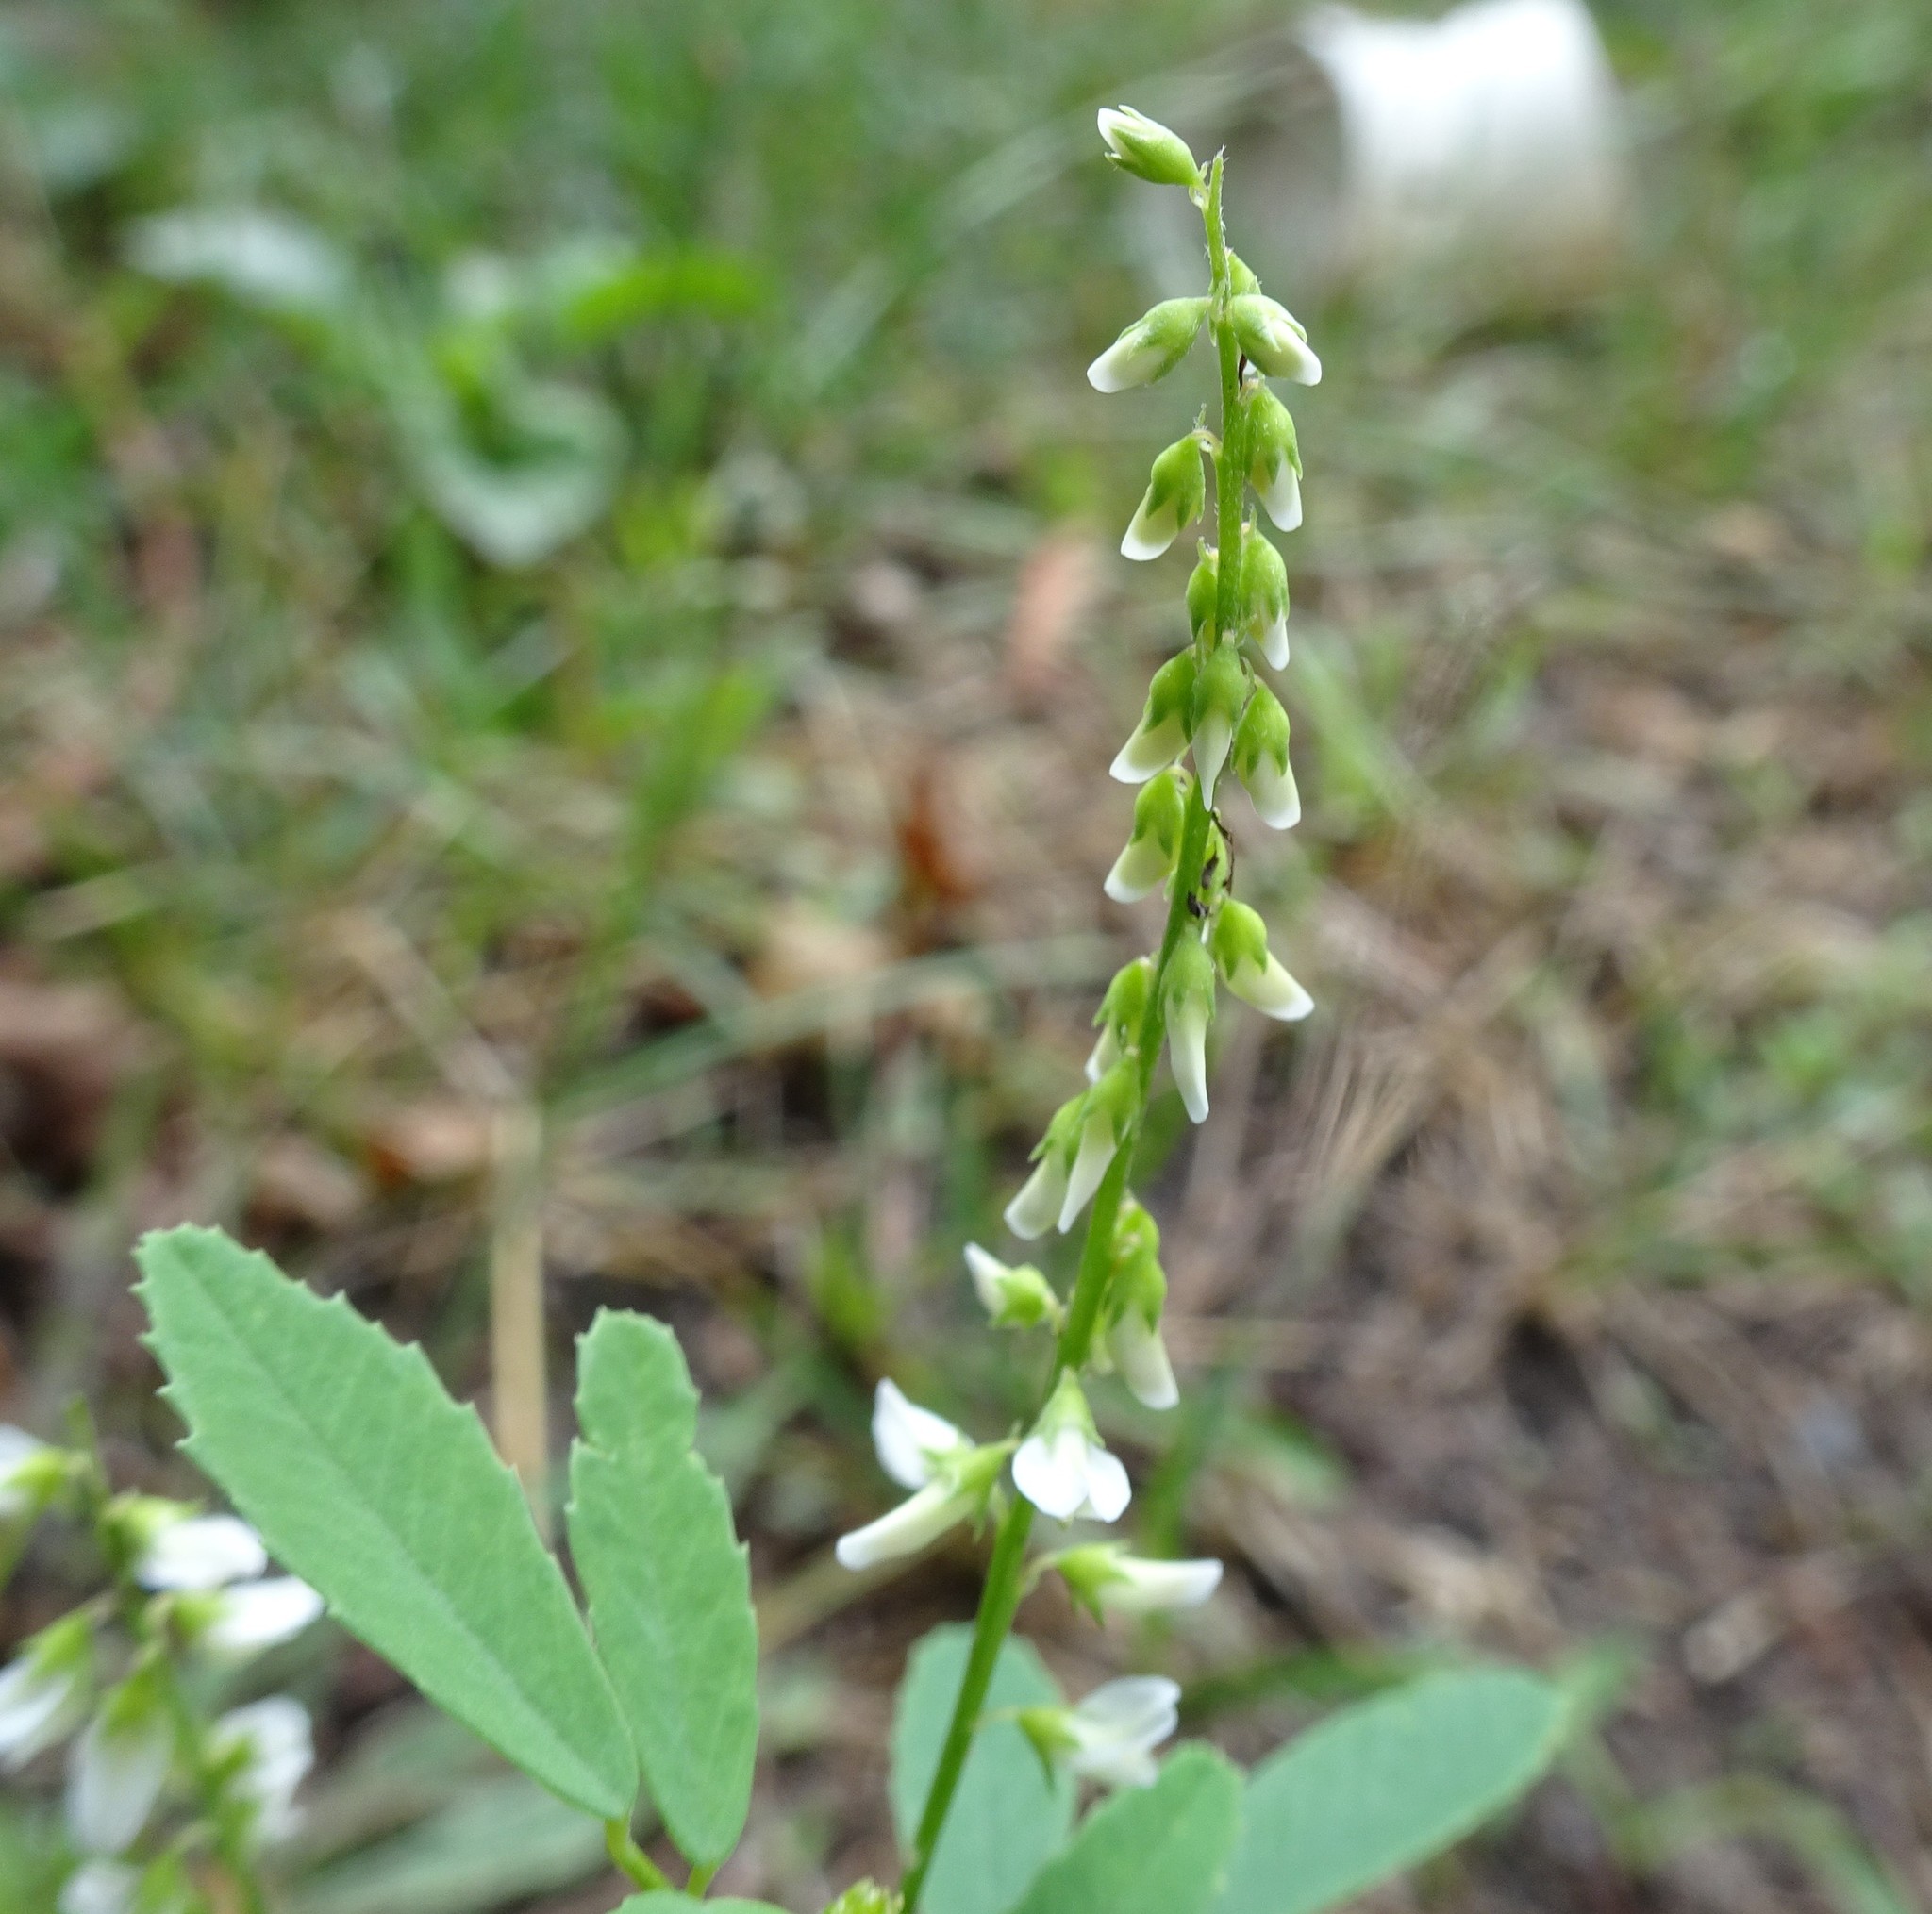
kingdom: Plantae
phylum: Tracheophyta
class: Magnoliopsida
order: Fabales
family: Fabaceae
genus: Melilotus
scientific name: Melilotus albus
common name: White melilot
